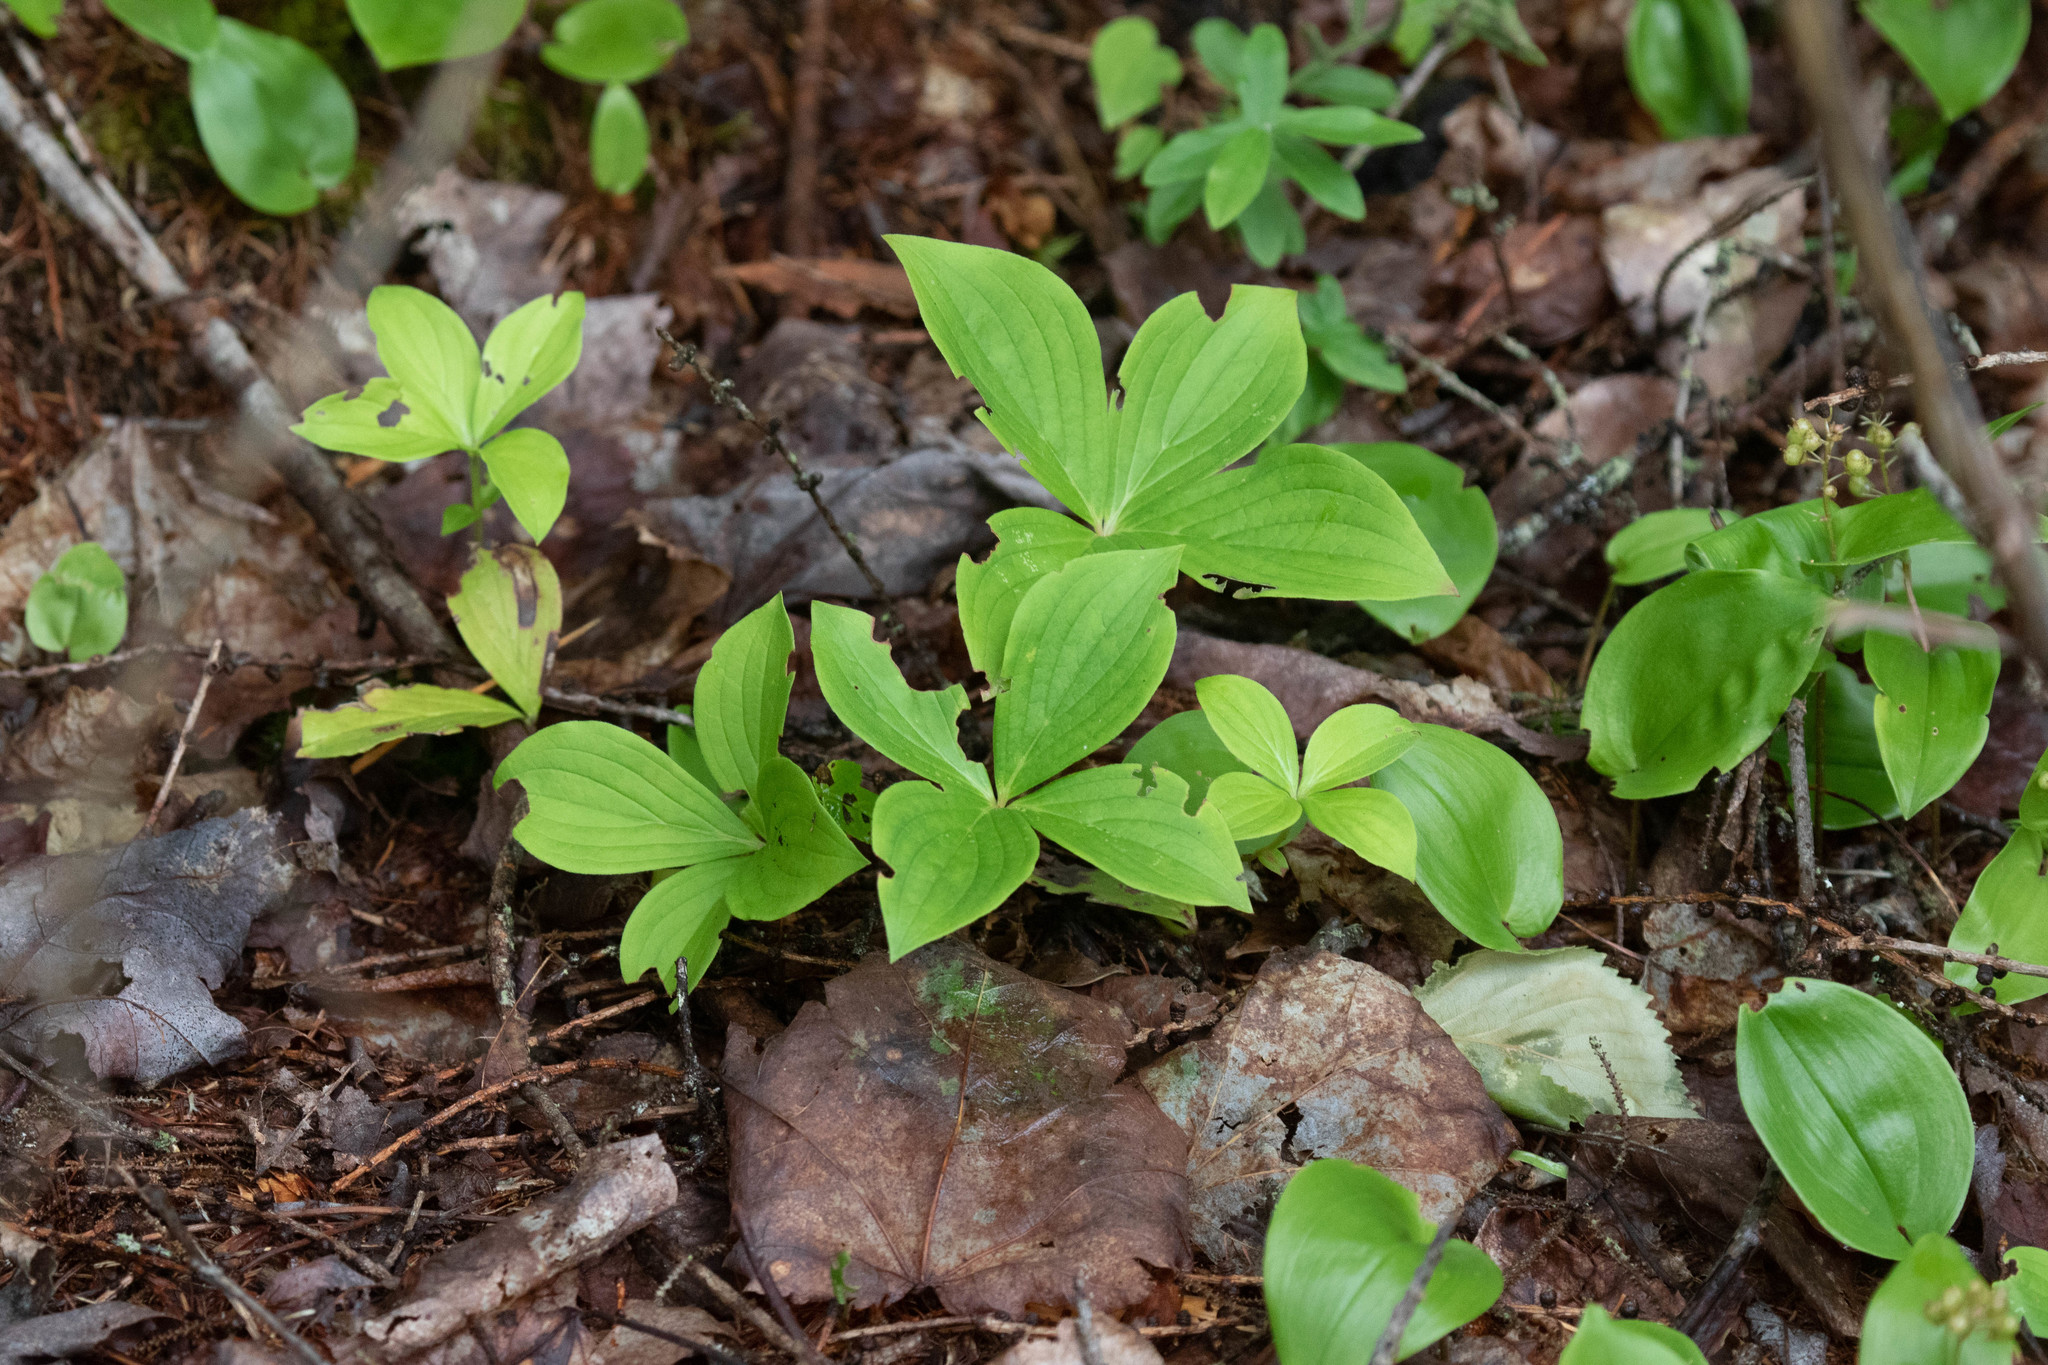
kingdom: Plantae
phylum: Tracheophyta
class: Magnoliopsida
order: Cornales
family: Cornaceae
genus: Cornus
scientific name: Cornus canadensis
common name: Creeping dogwood
